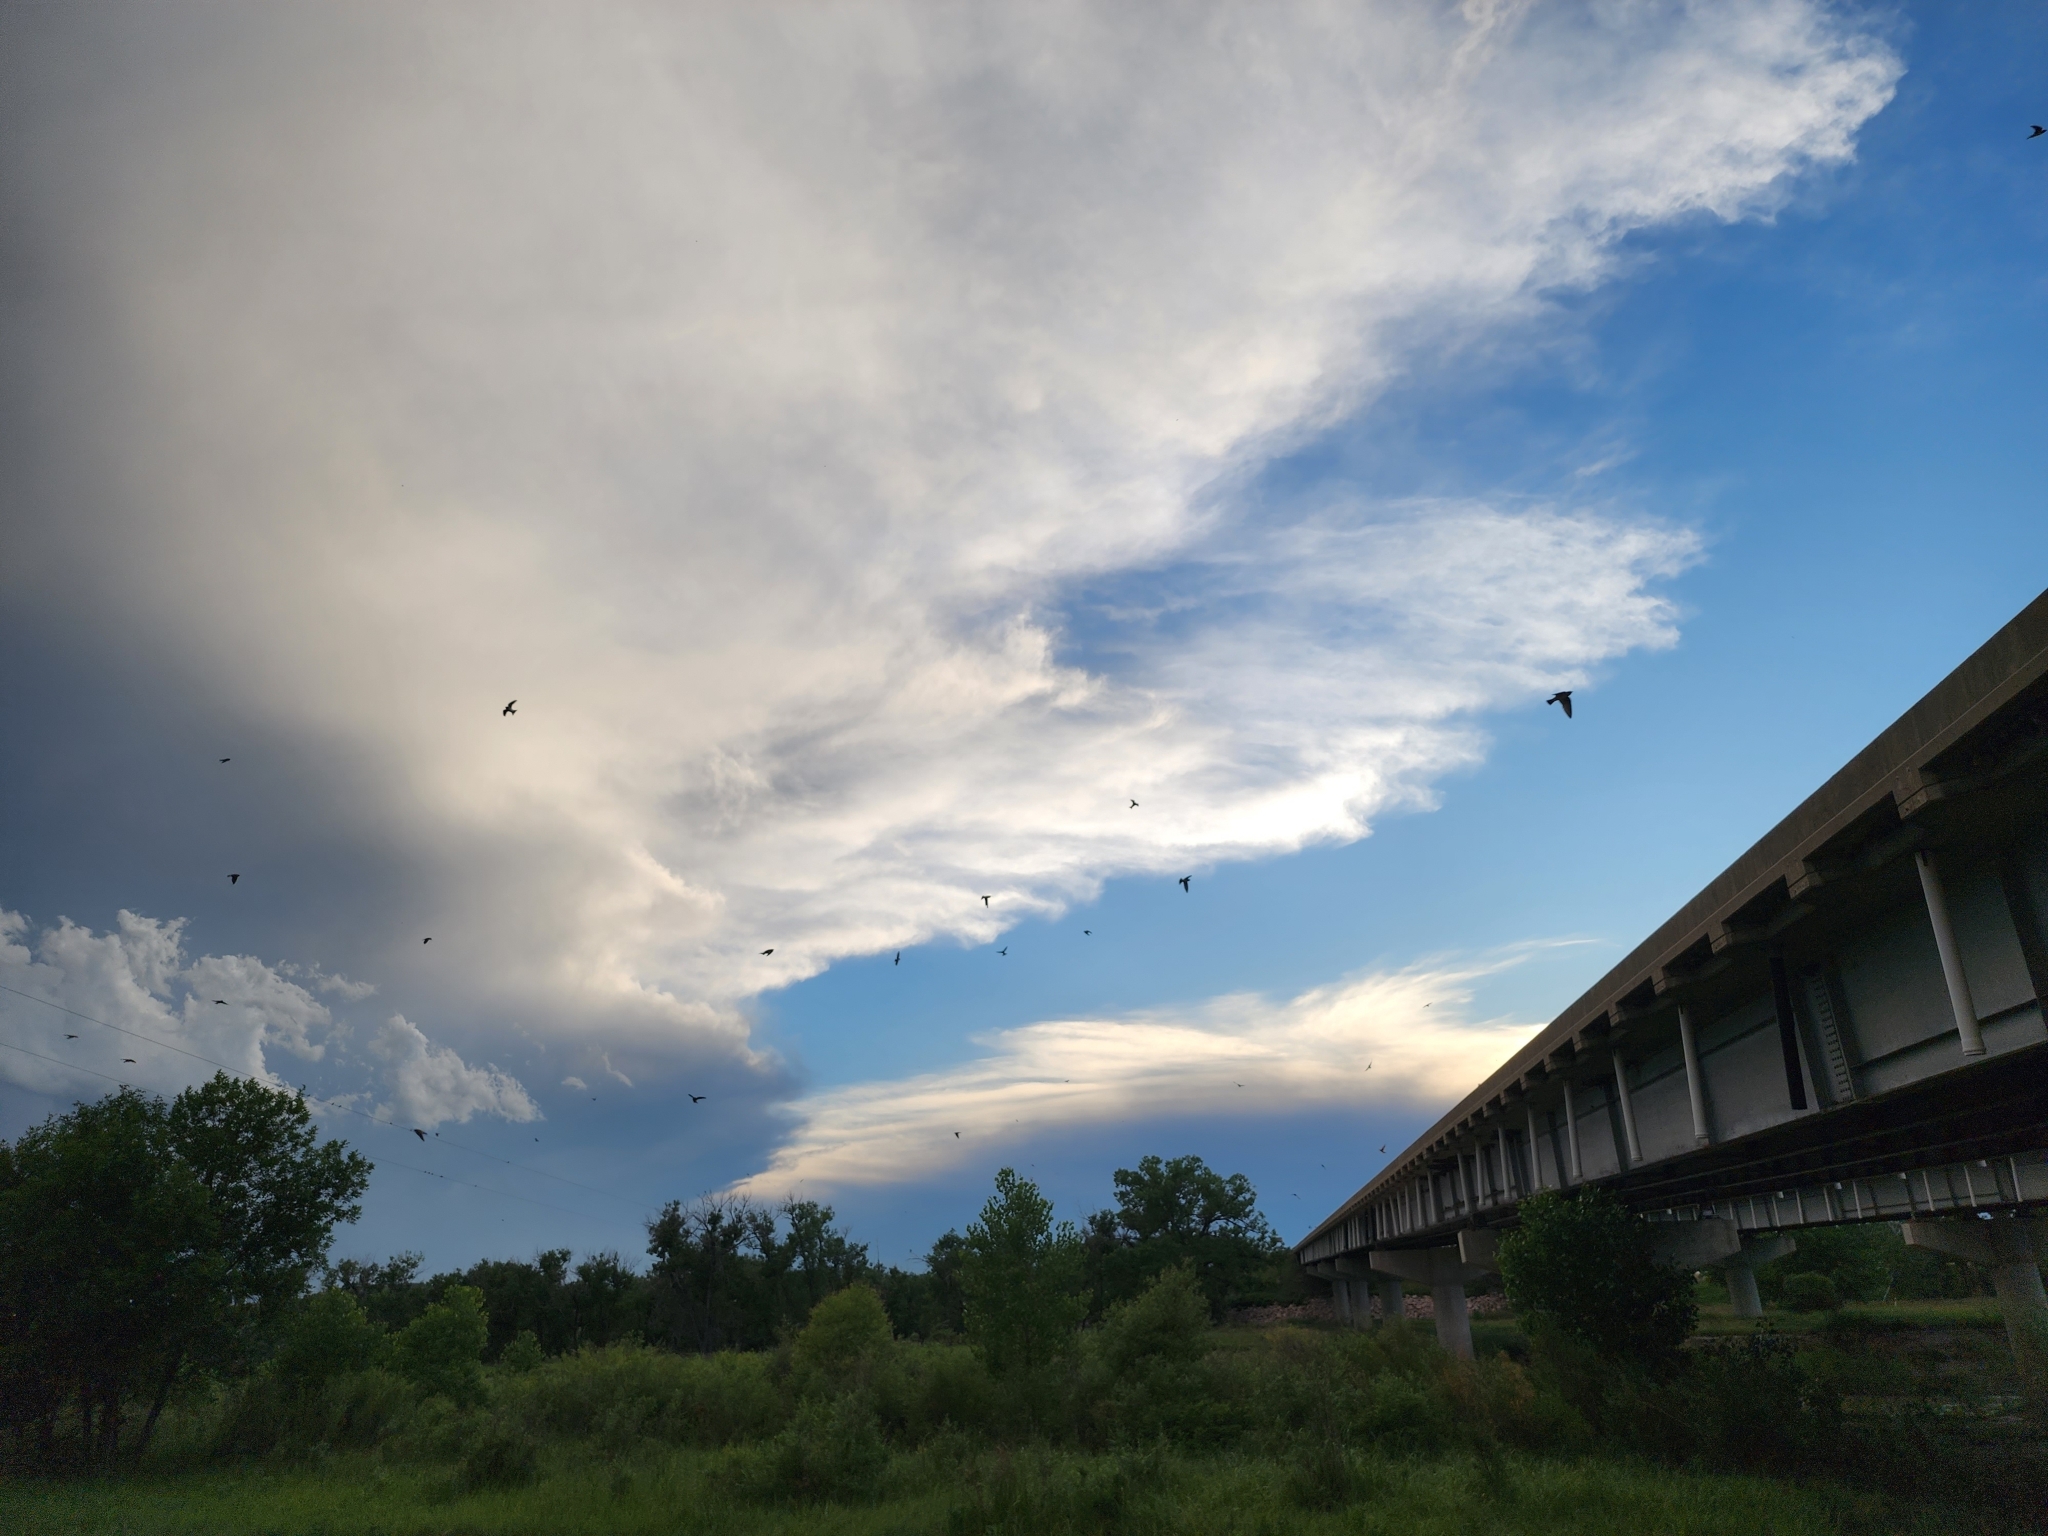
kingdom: Animalia
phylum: Chordata
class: Aves
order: Passeriformes
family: Hirundinidae
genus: Petrochelidon
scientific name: Petrochelidon pyrrhonota
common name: American cliff swallow
